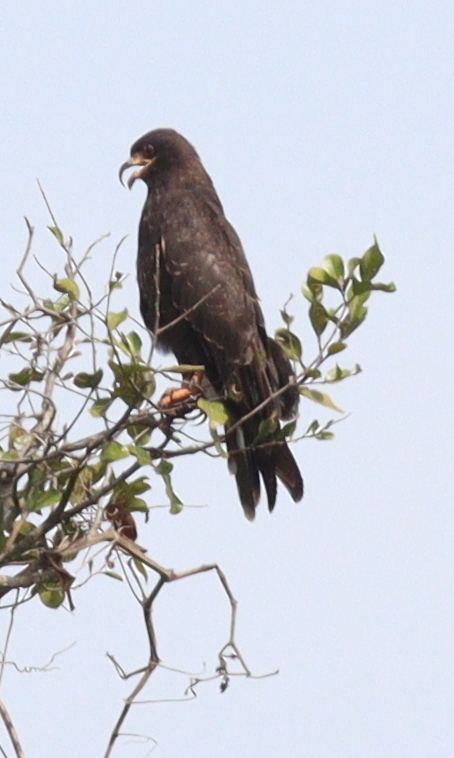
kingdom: Animalia
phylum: Chordata
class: Aves
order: Accipitriformes
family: Accipitridae
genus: Rostrhamus
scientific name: Rostrhamus sociabilis
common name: Snail kite
